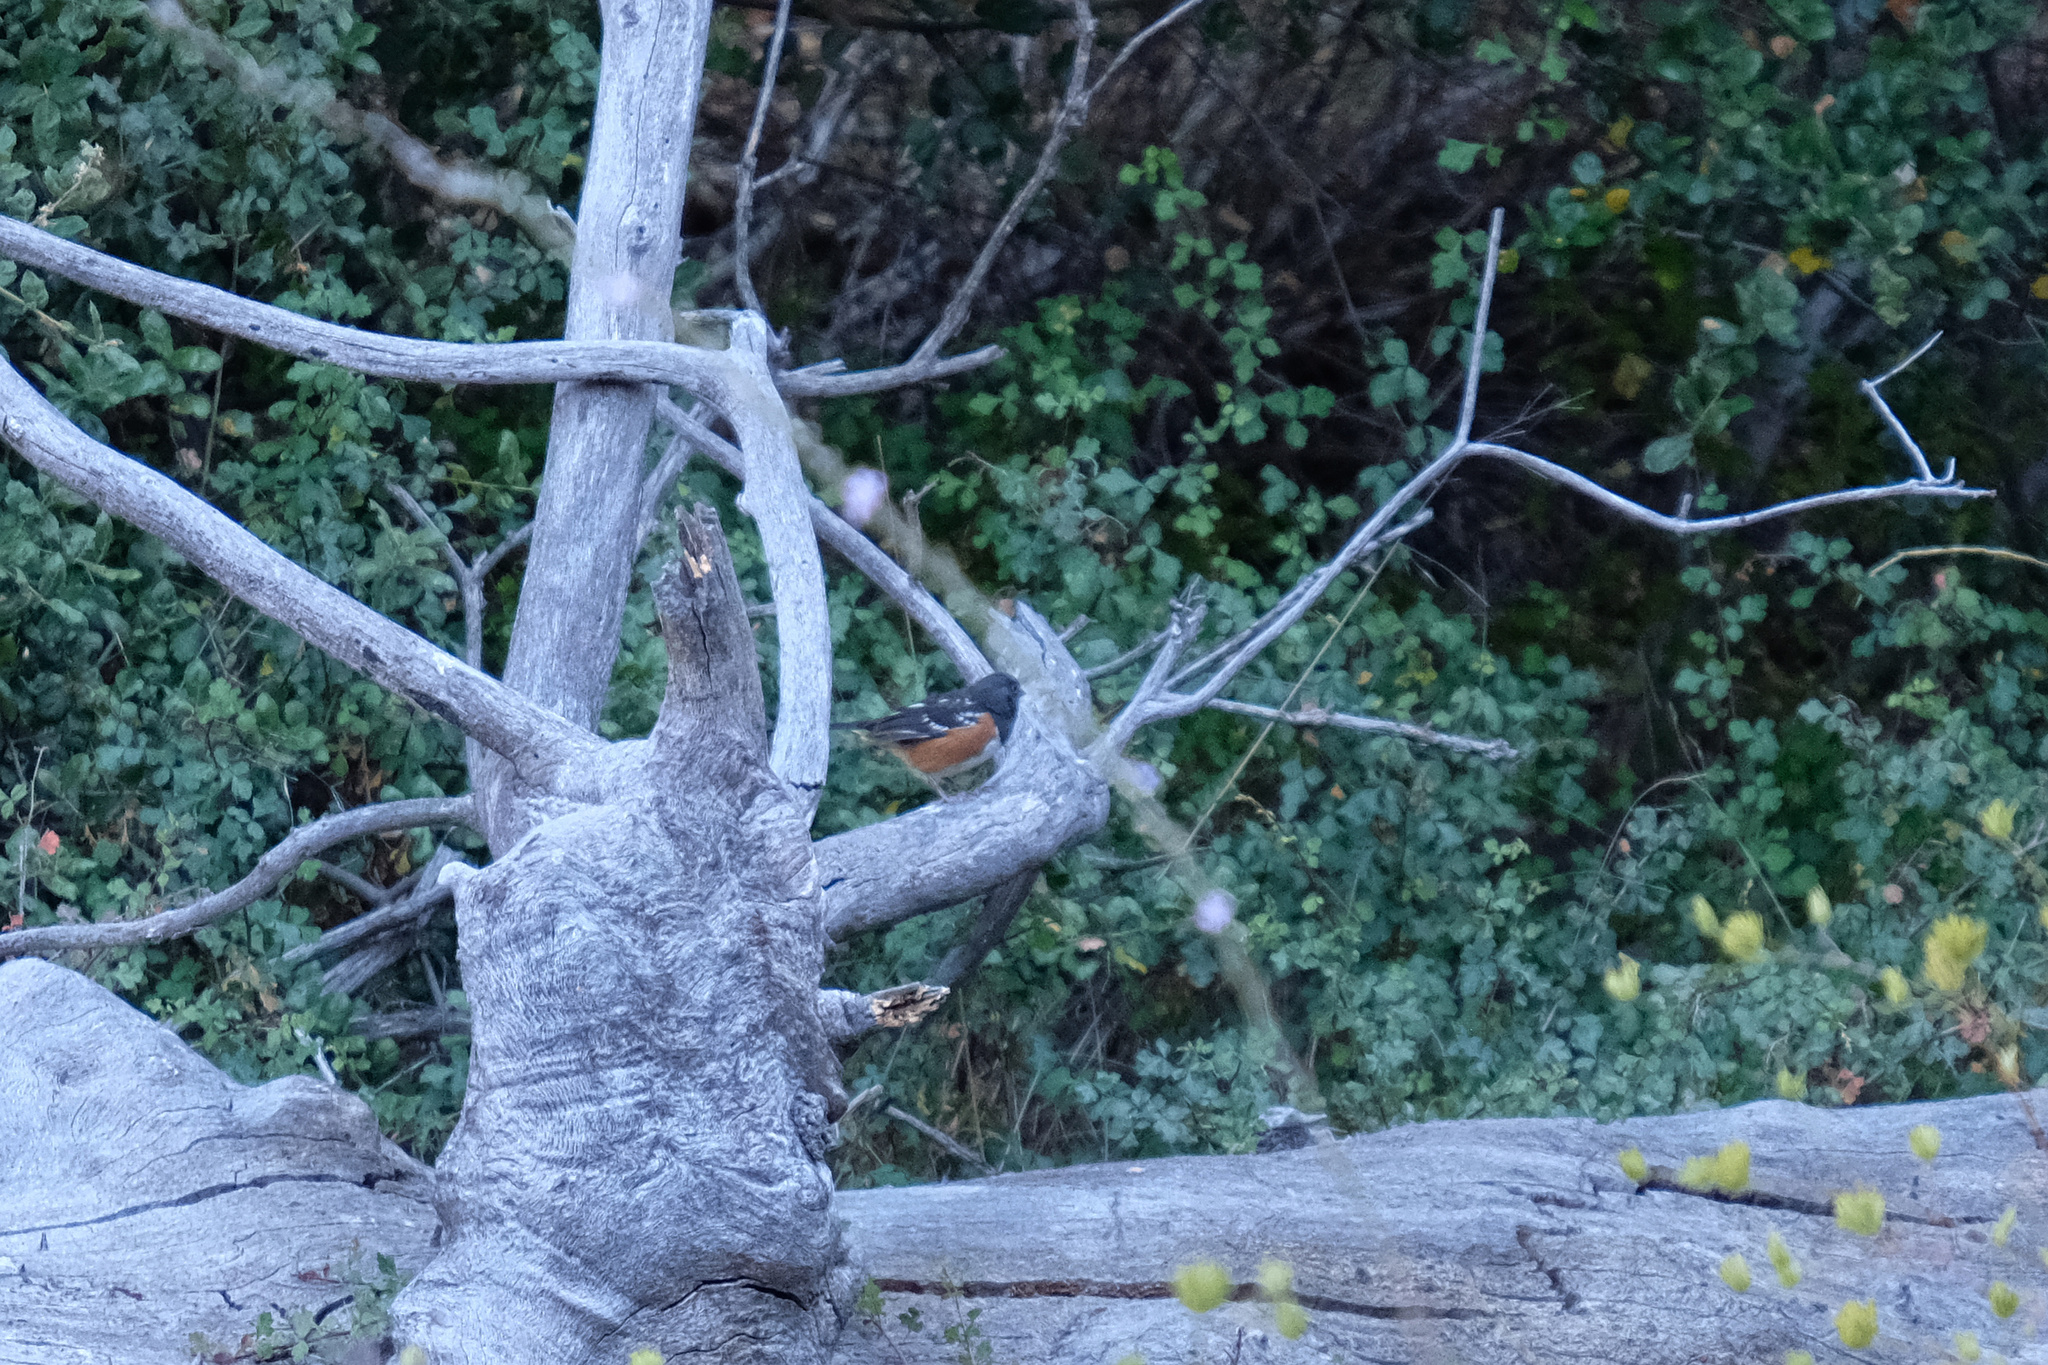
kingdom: Animalia
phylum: Chordata
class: Aves
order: Passeriformes
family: Passerellidae
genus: Pipilo
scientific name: Pipilo maculatus
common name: Spotted towhee
